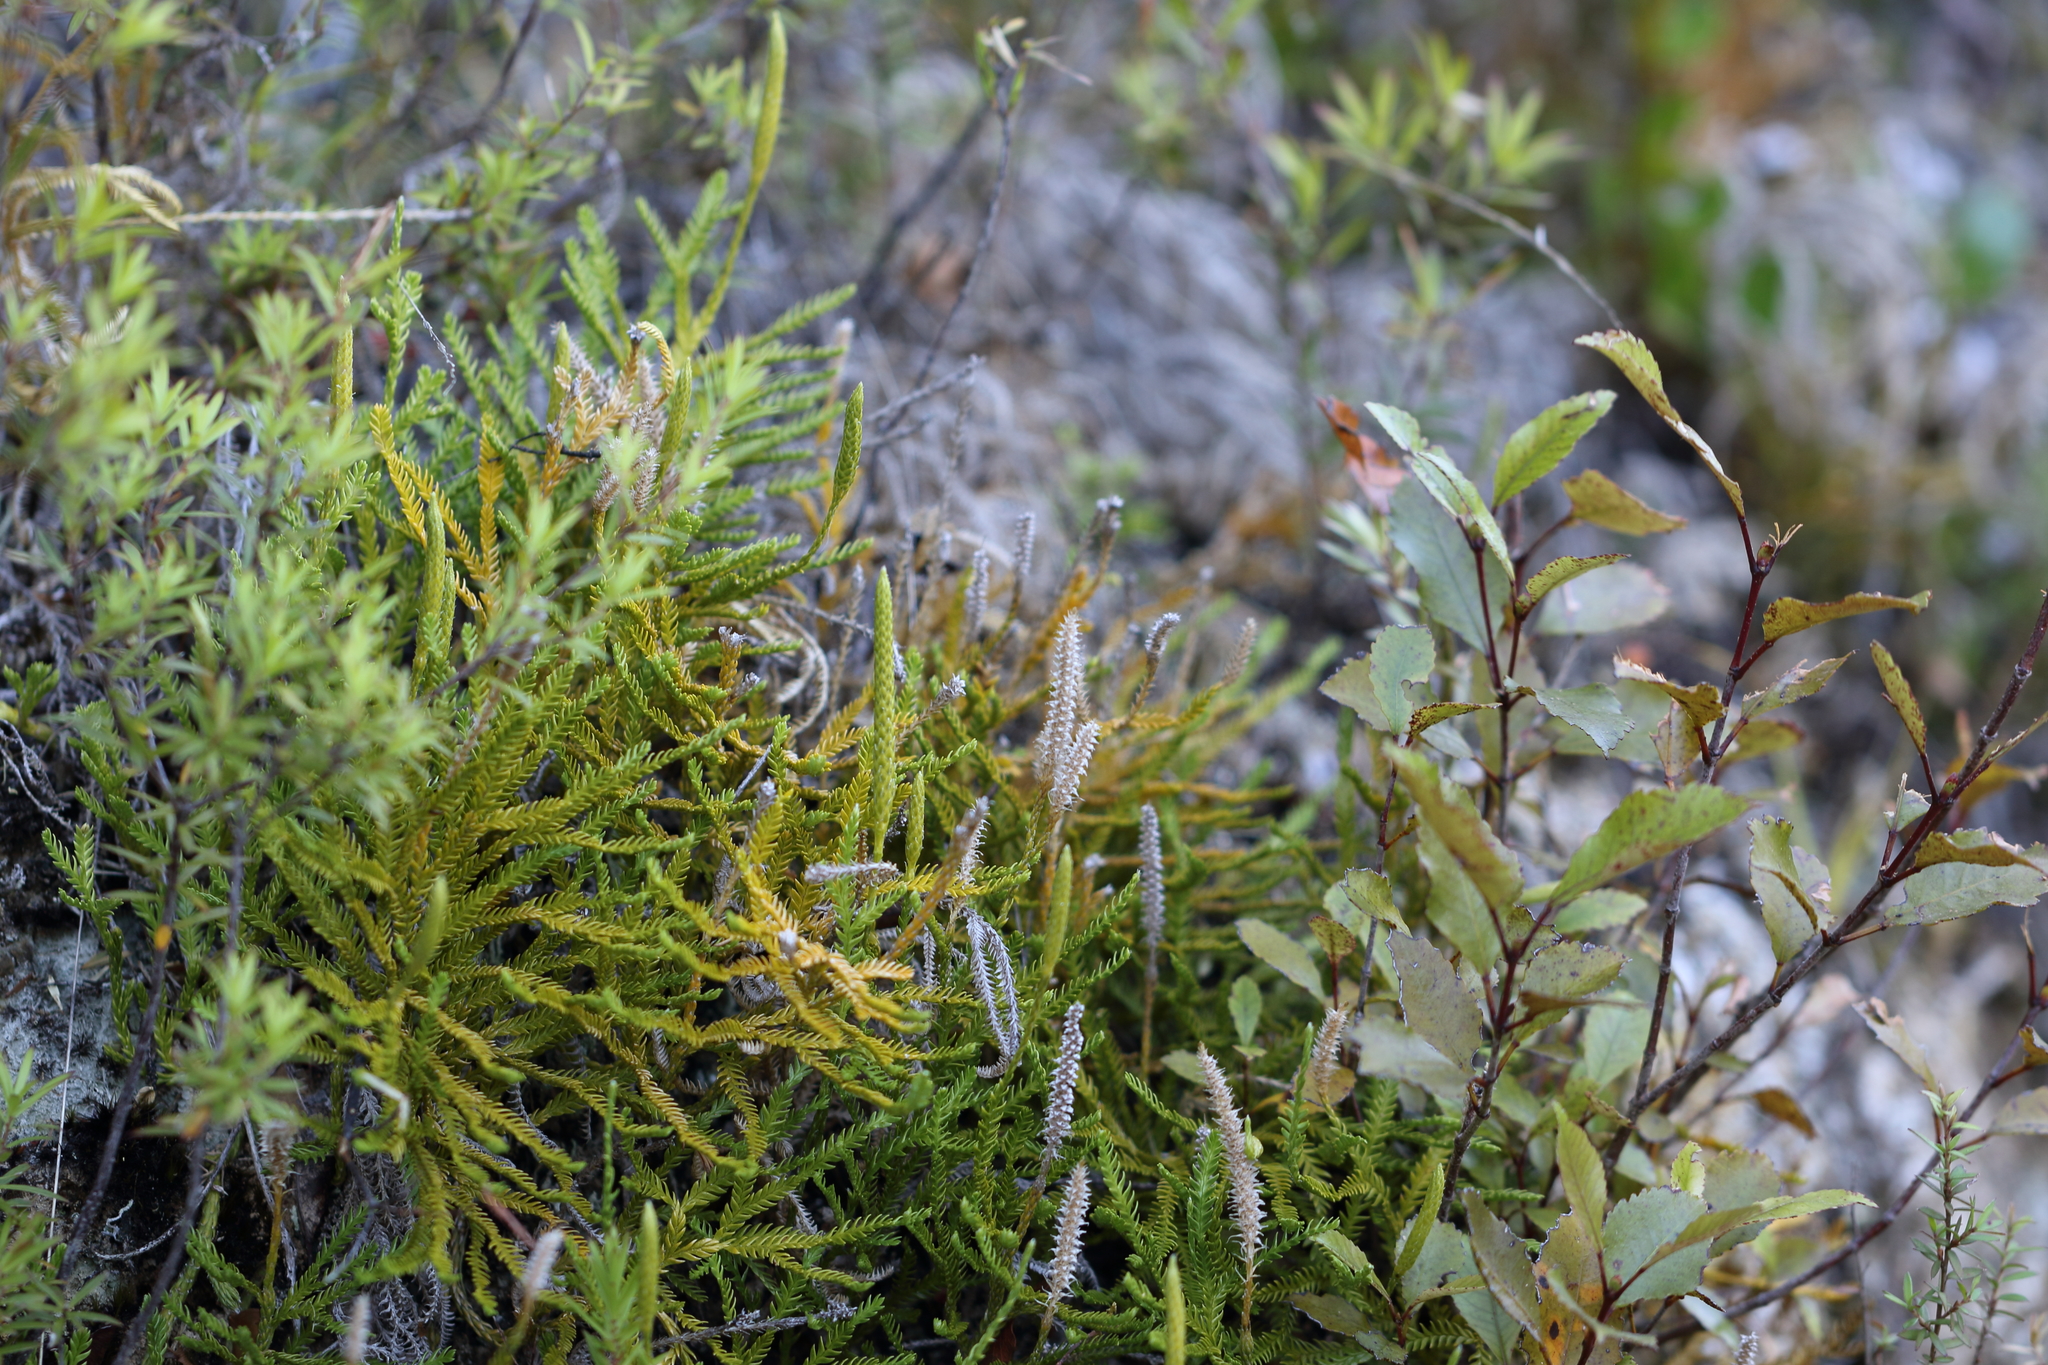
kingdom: Plantae
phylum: Tracheophyta
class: Lycopodiopsida
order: Lycopodiales
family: Lycopodiaceae
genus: Diphasium
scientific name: Diphasium scariosum
